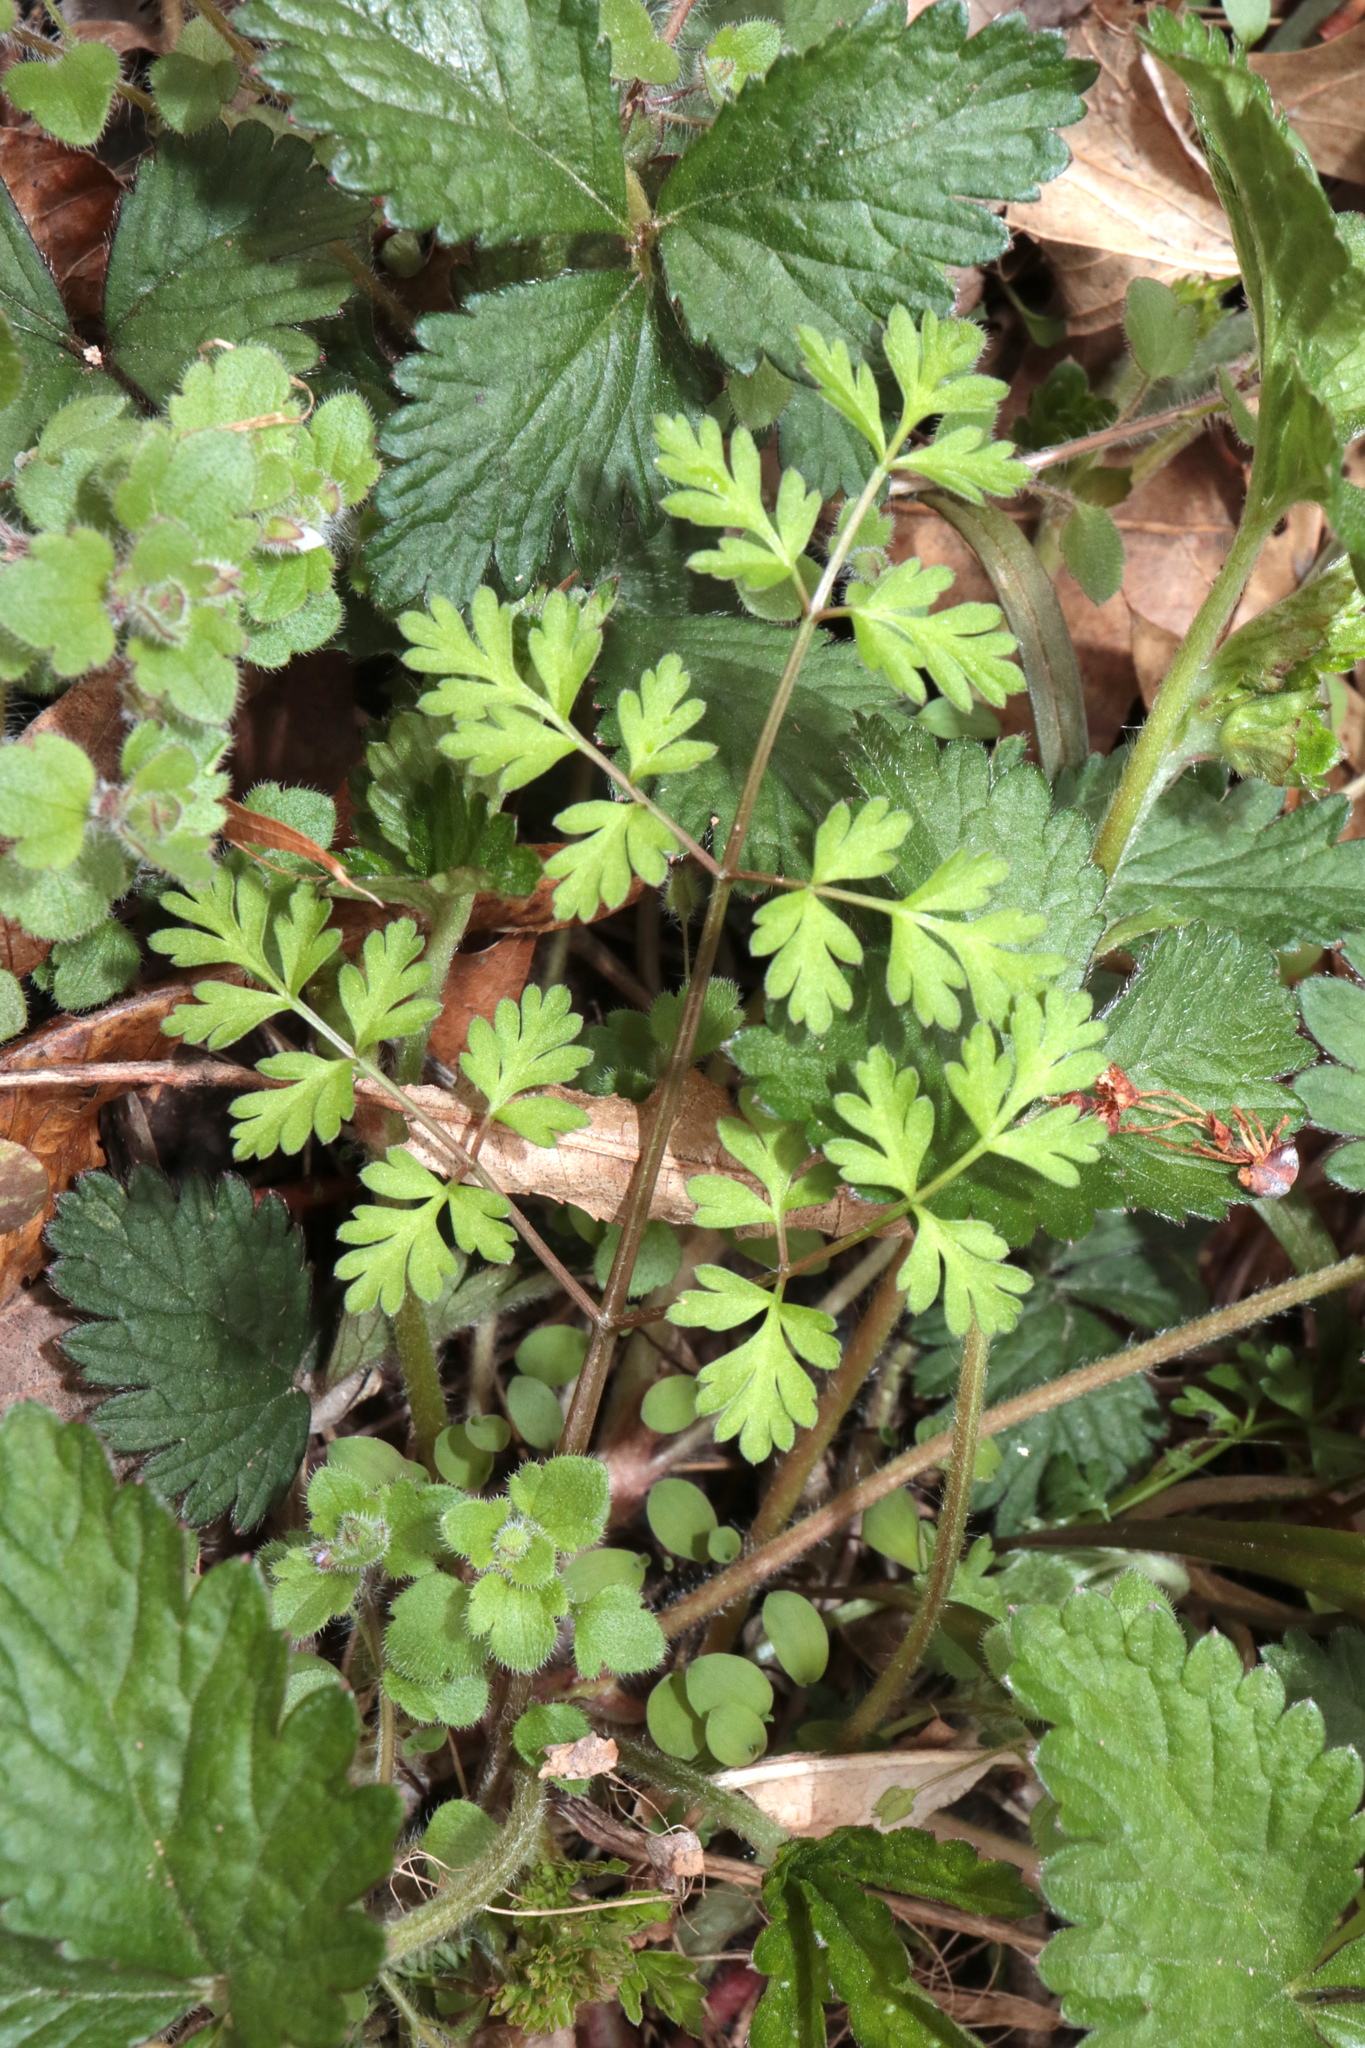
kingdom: Plantae
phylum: Tracheophyta
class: Magnoliopsida
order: Apiales
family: Apiaceae
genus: Chaerophyllum
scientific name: Chaerophyllum procumbens
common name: Spreading chervil
